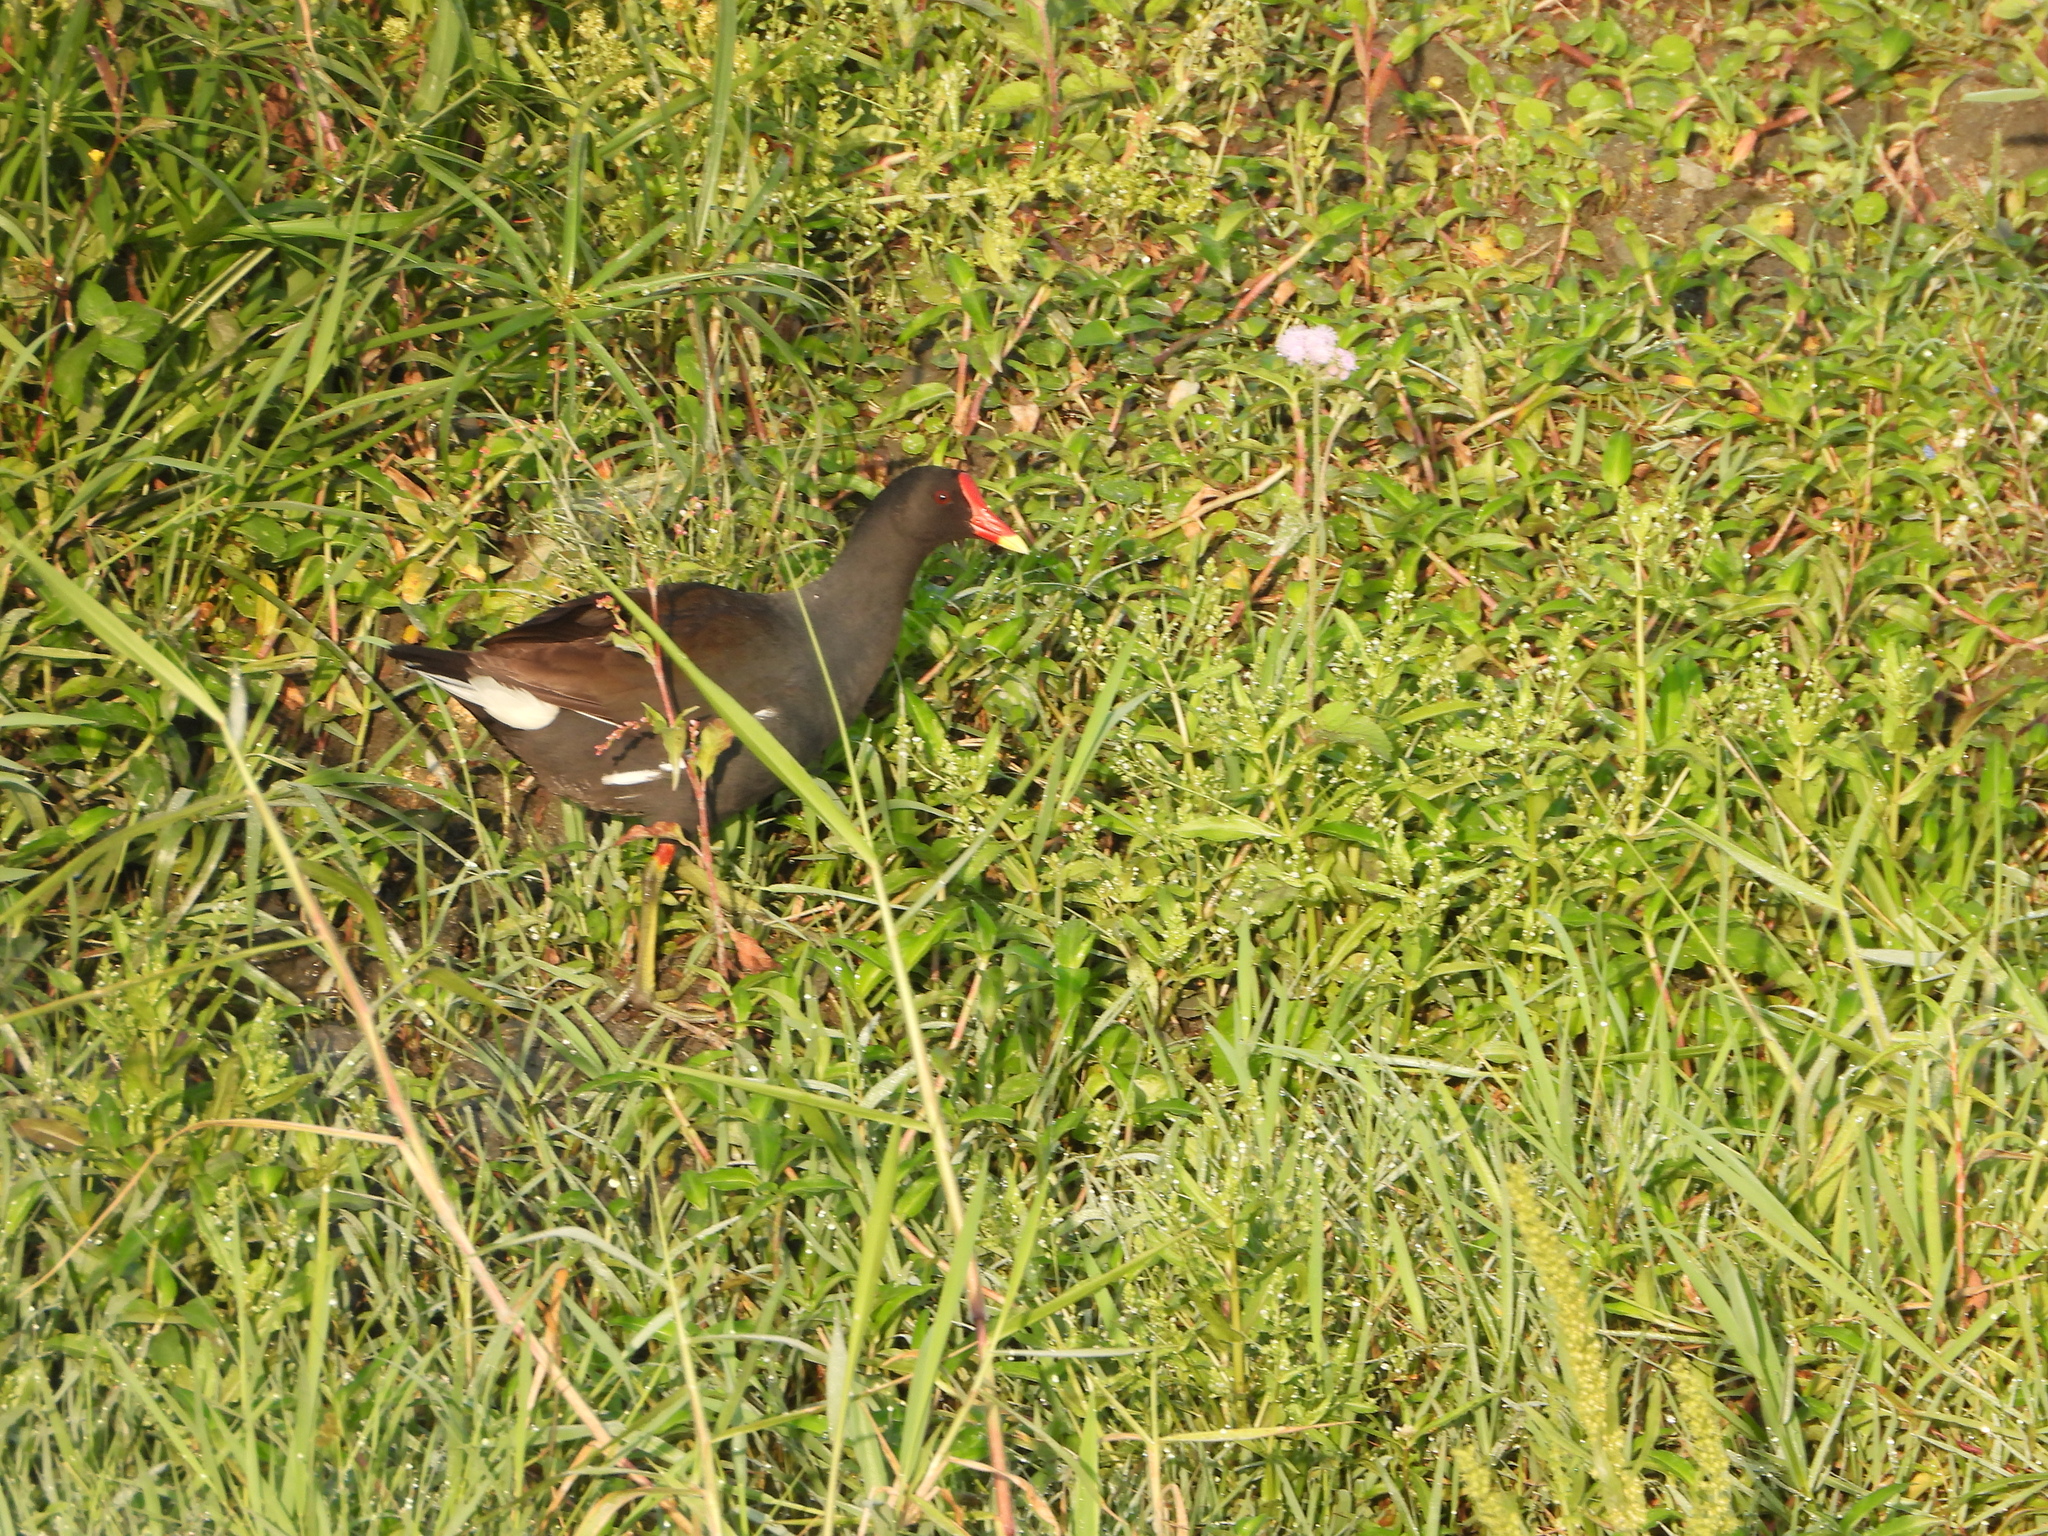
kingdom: Animalia
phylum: Chordata
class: Aves
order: Gruiformes
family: Rallidae
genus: Gallinula
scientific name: Gallinula chloropus
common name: Common moorhen
